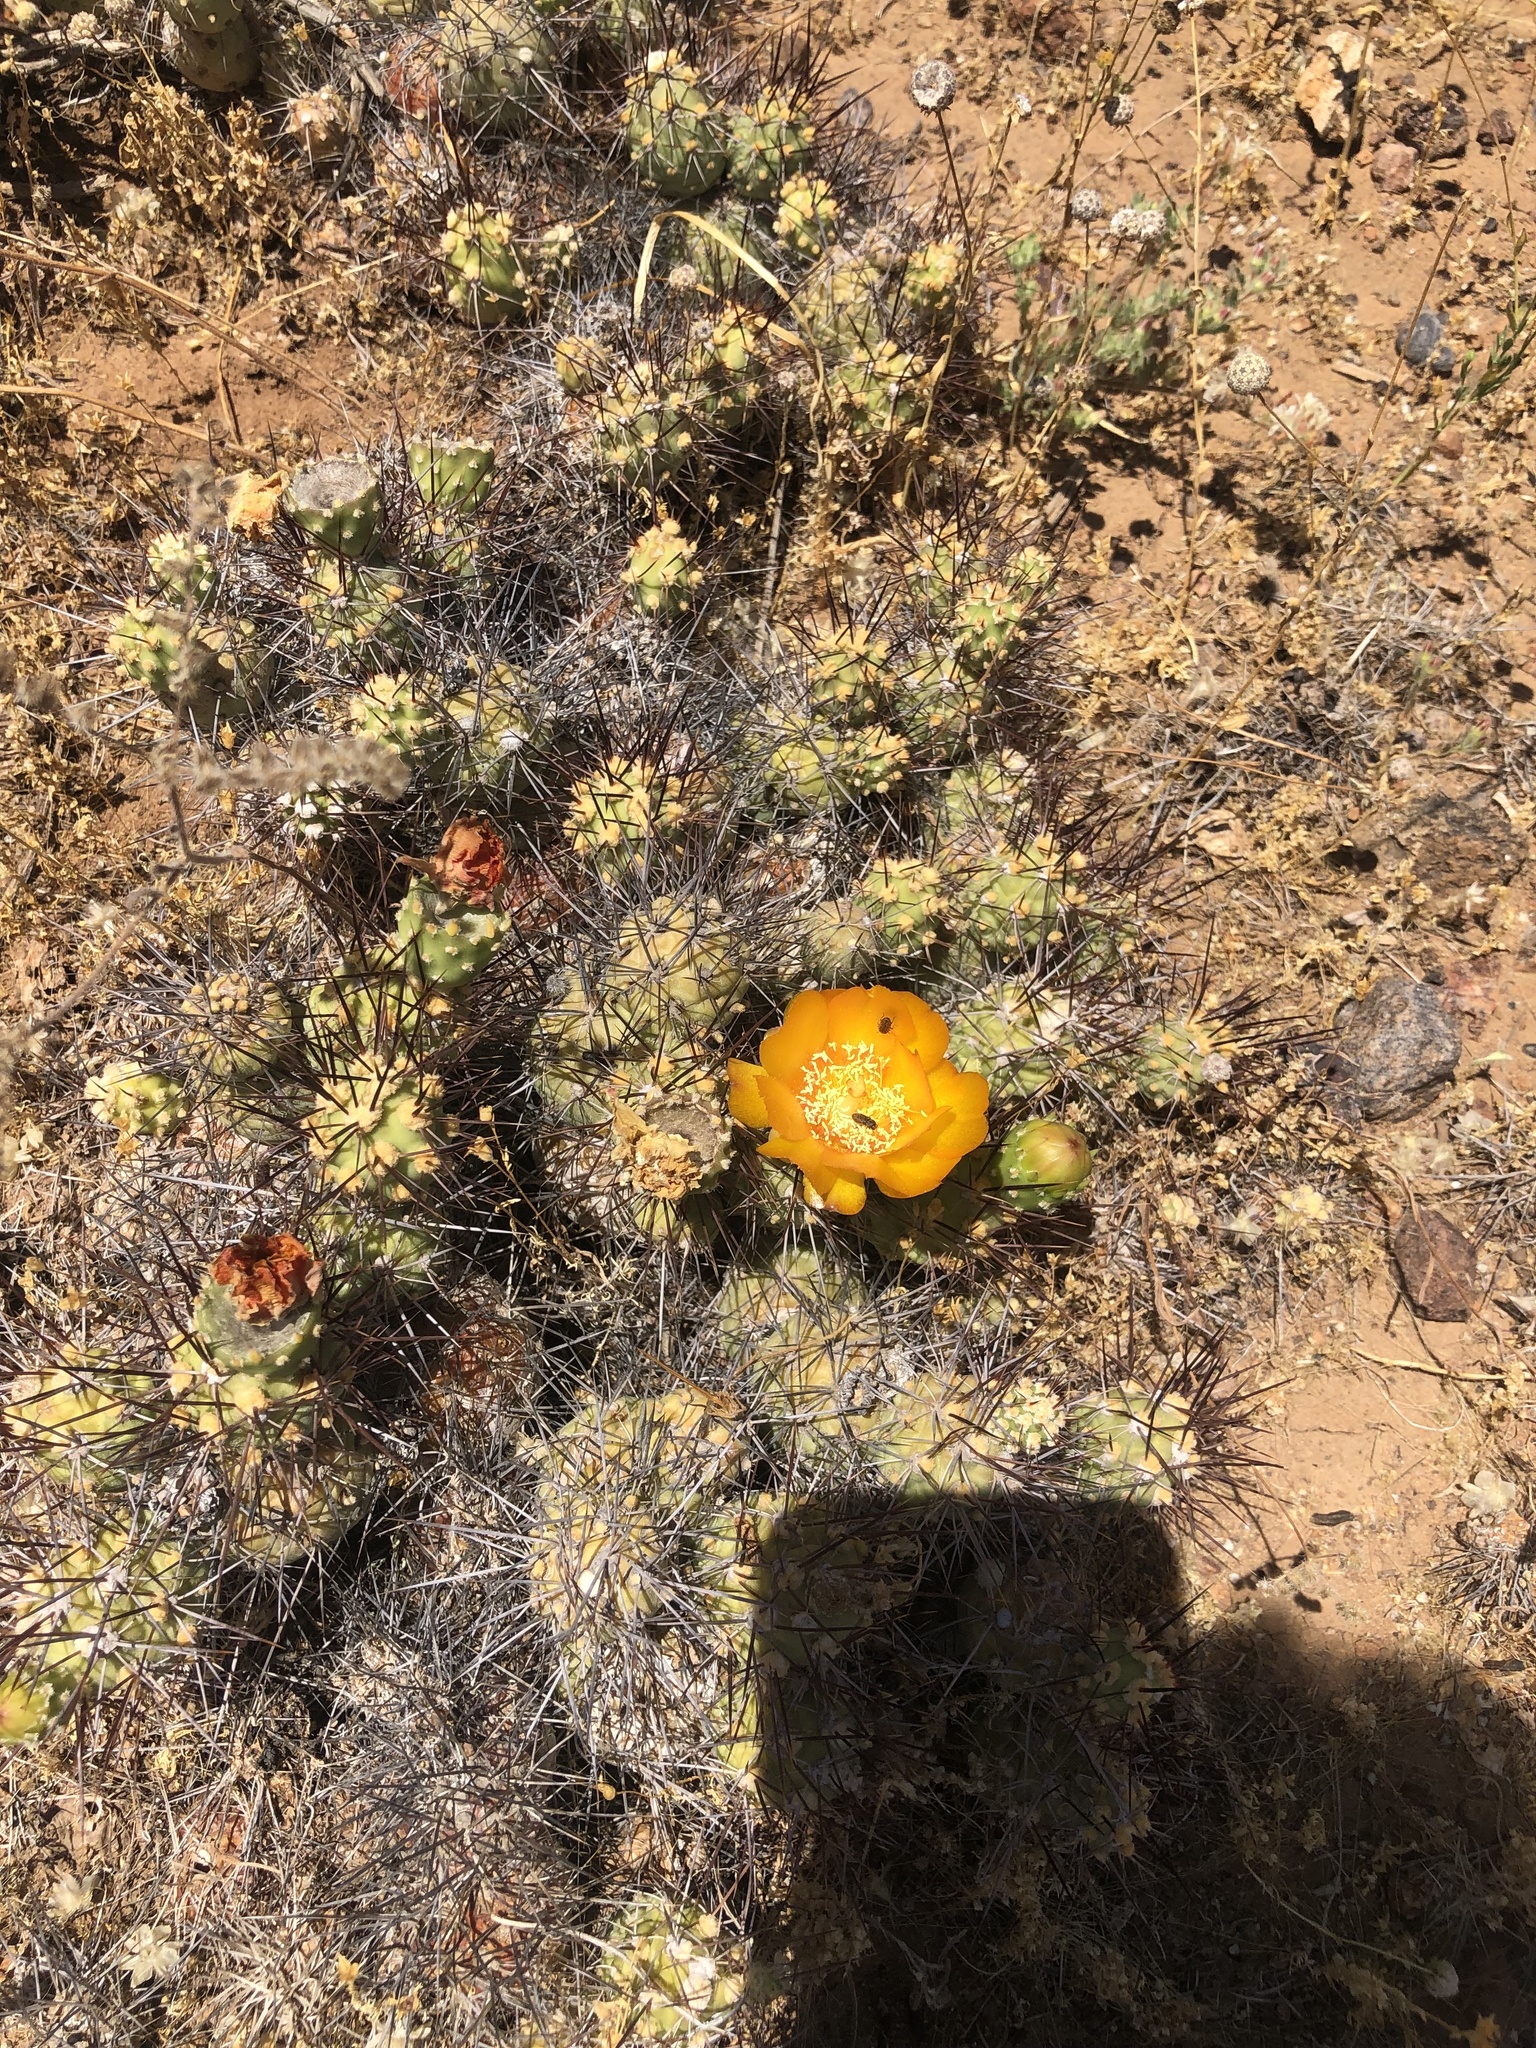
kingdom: Plantae
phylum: Tracheophyta
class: Magnoliopsida
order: Caryophyllales
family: Cactaceae
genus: Cumulopuntia
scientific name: Cumulopuntia leucophaea
